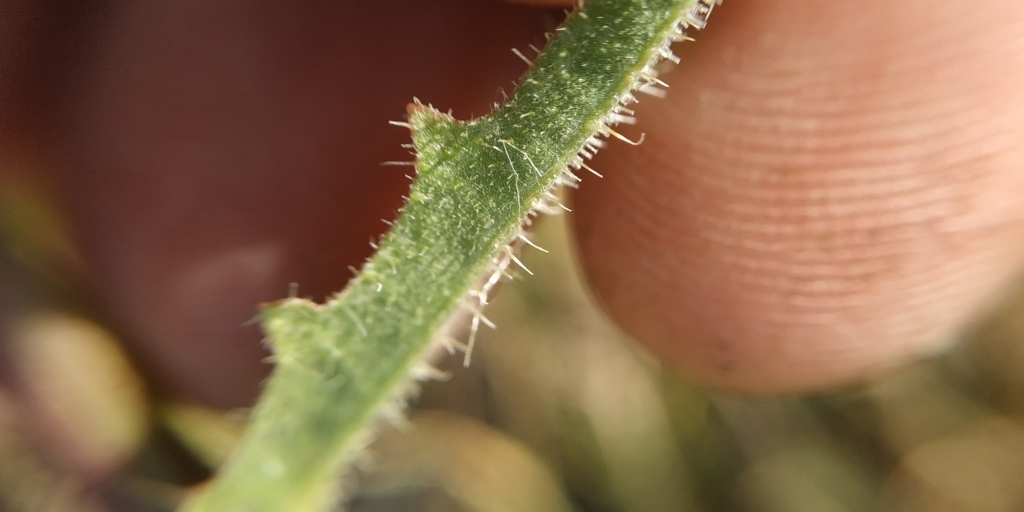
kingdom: Plantae
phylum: Tracheophyta
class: Magnoliopsida
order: Asterales
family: Asteraceae
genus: Picris
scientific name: Picris hieracioides
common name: Hawkweed oxtongue
